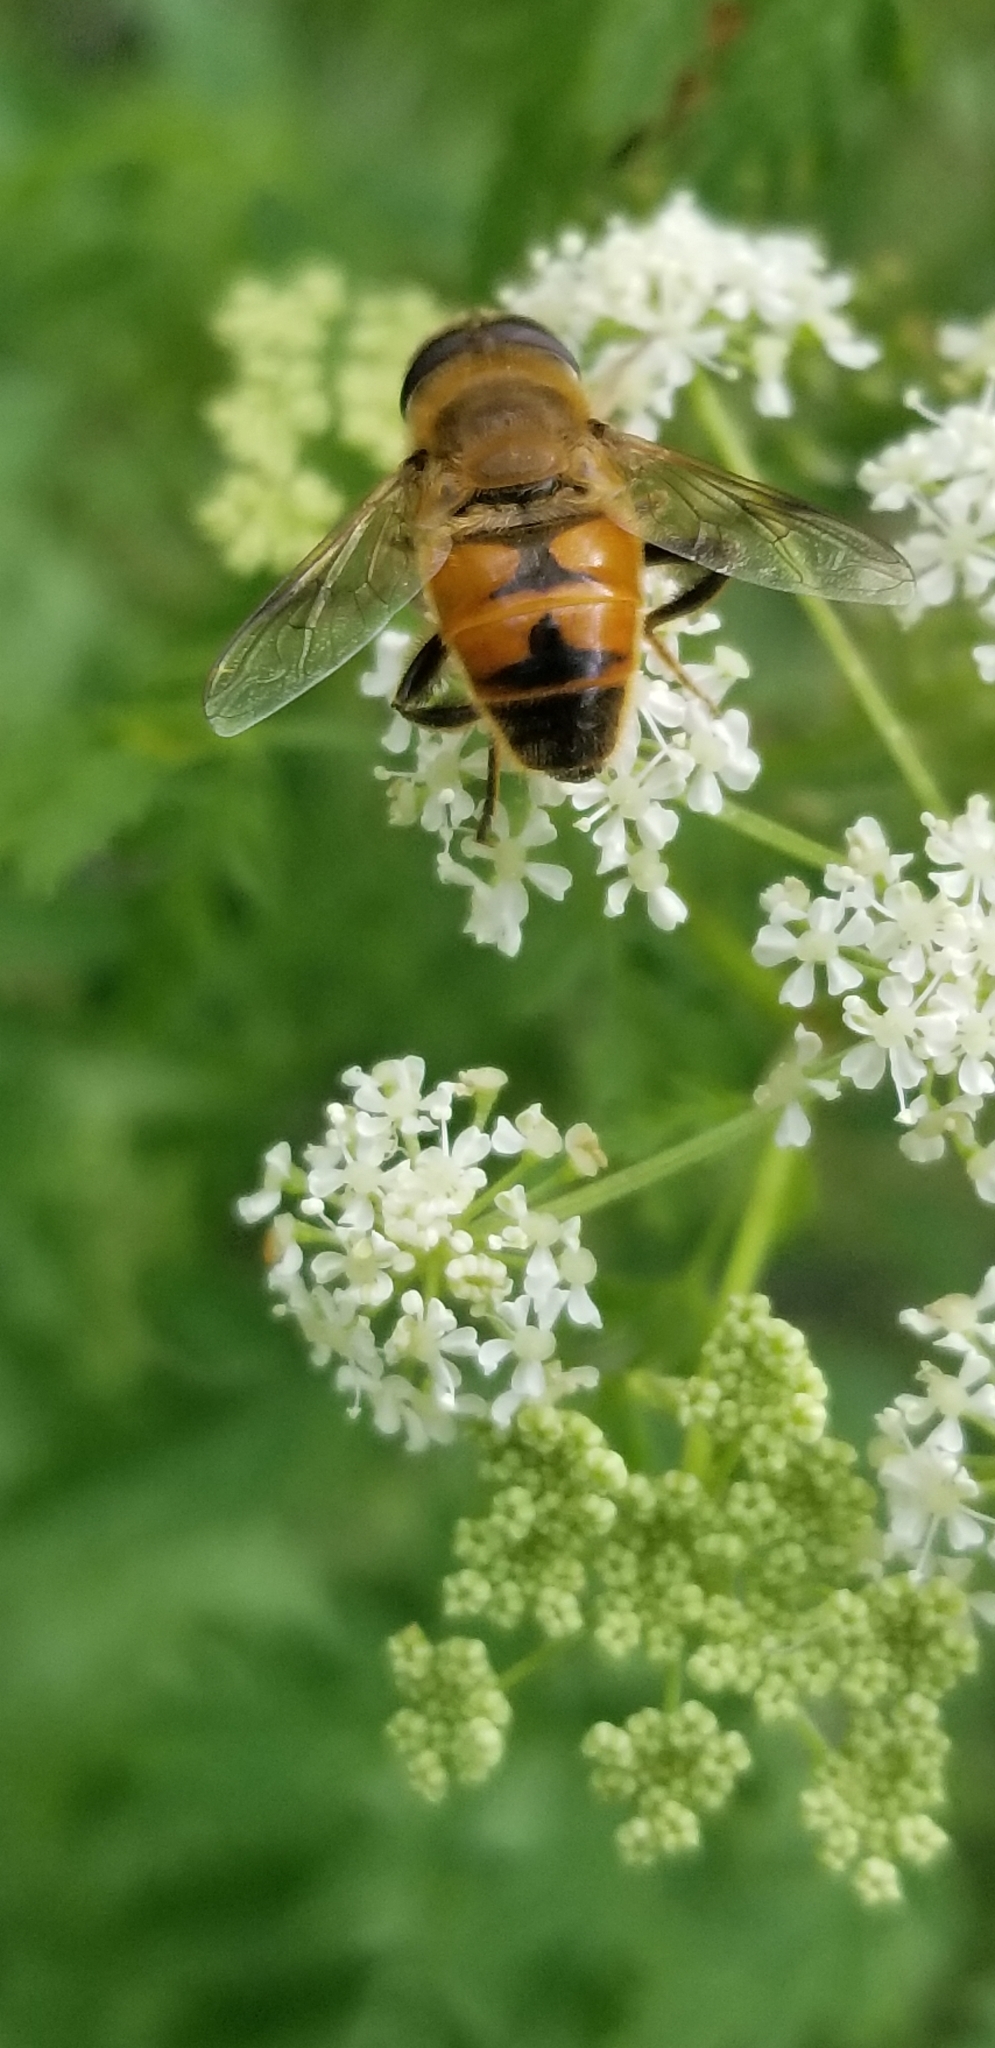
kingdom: Animalia
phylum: Arthropoda
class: Insecta
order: Diptera
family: Syrphidae
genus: Eristalis
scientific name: Eristalis tenax
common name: Drone fly
